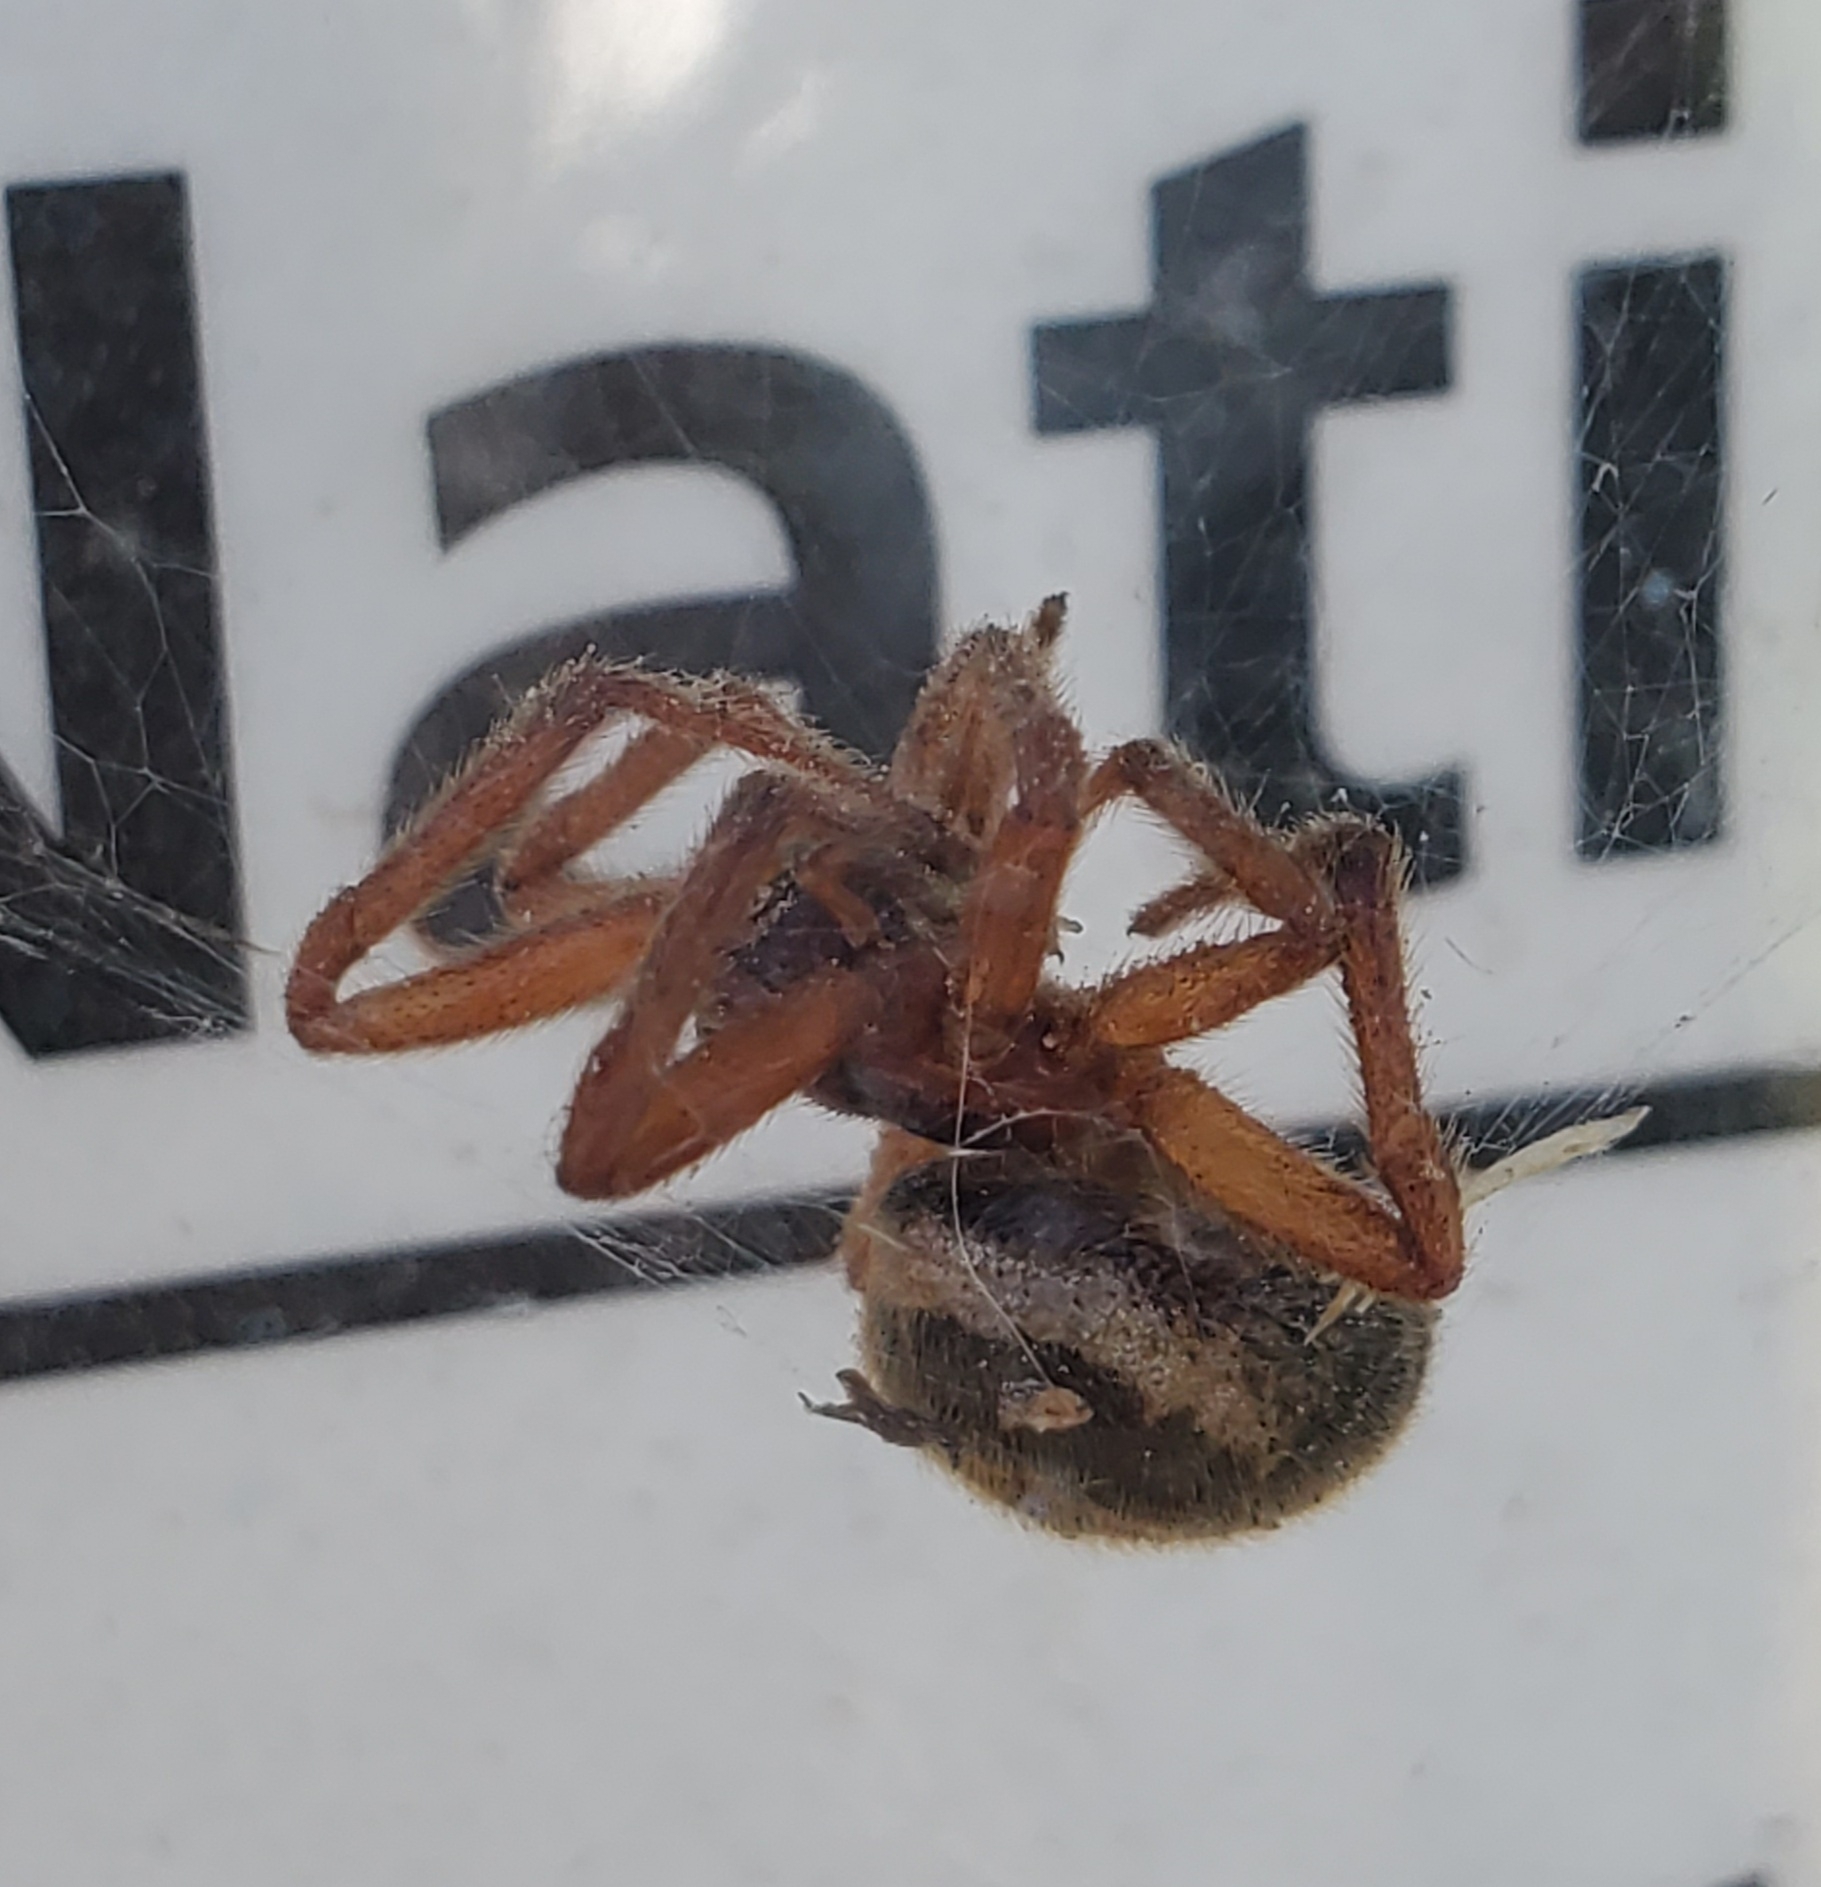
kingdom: Animalia
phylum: Arthropoda
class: Arachnida
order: Araneae
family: Theridiidae
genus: Steatoda
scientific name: Steatoda nobilis
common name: Cobweb weaver
